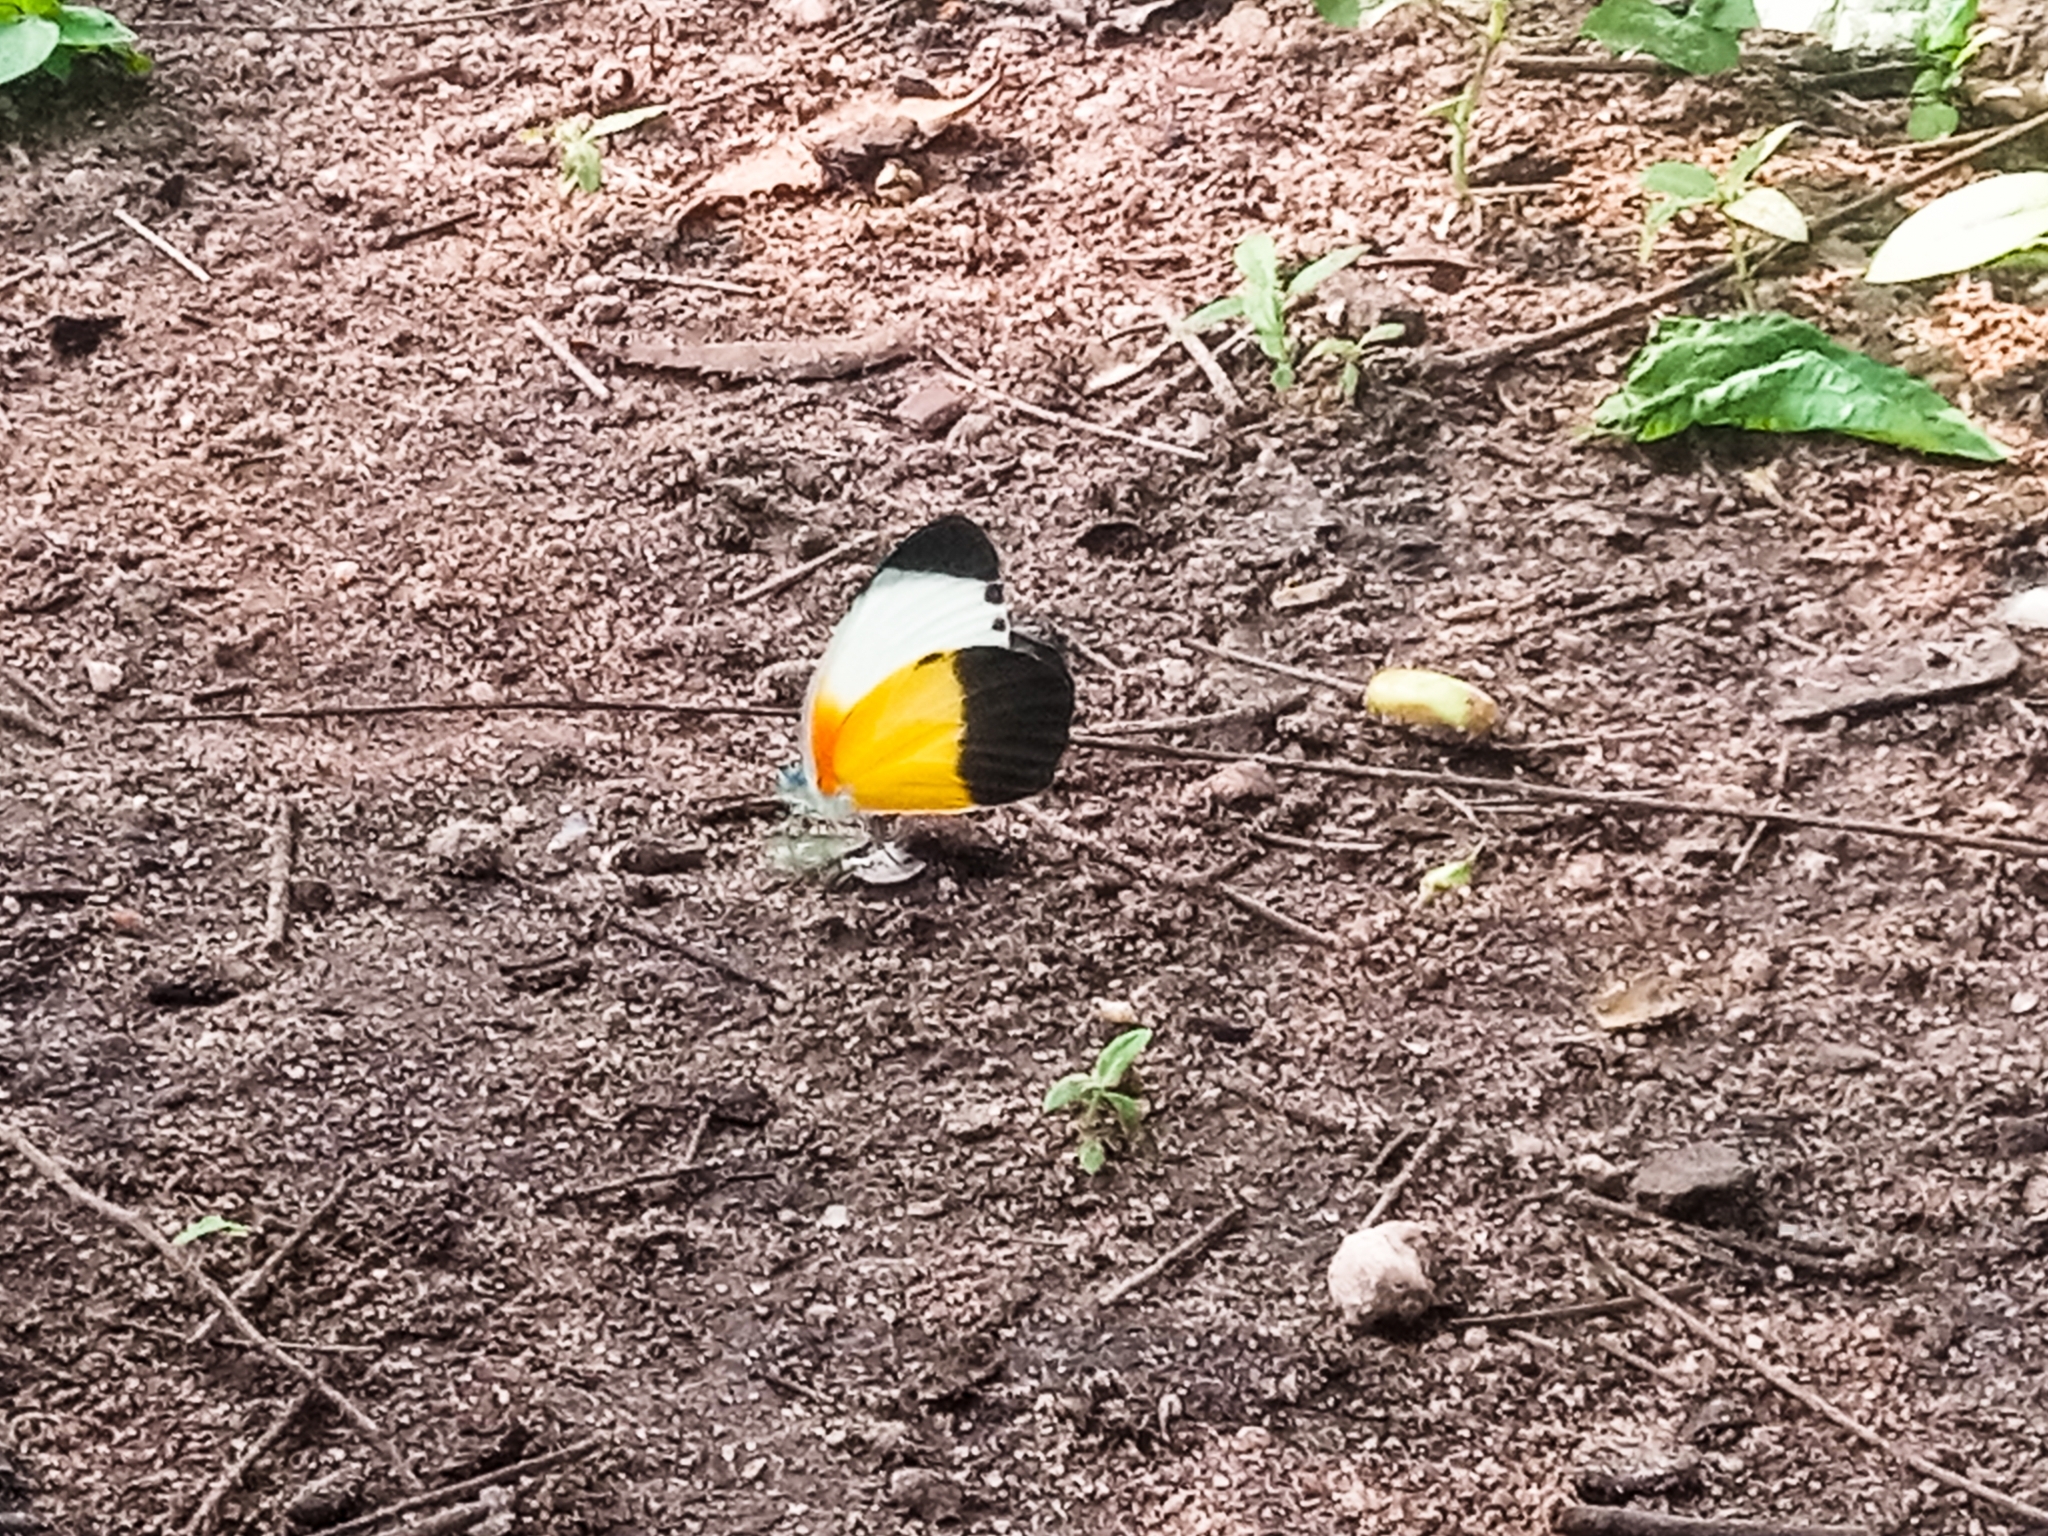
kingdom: Animalia
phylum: Arthropoda
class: Insecta
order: Lepidoptera
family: Pieridae
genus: Mylothris
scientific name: Mylothris chloris
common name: Western dotted border
